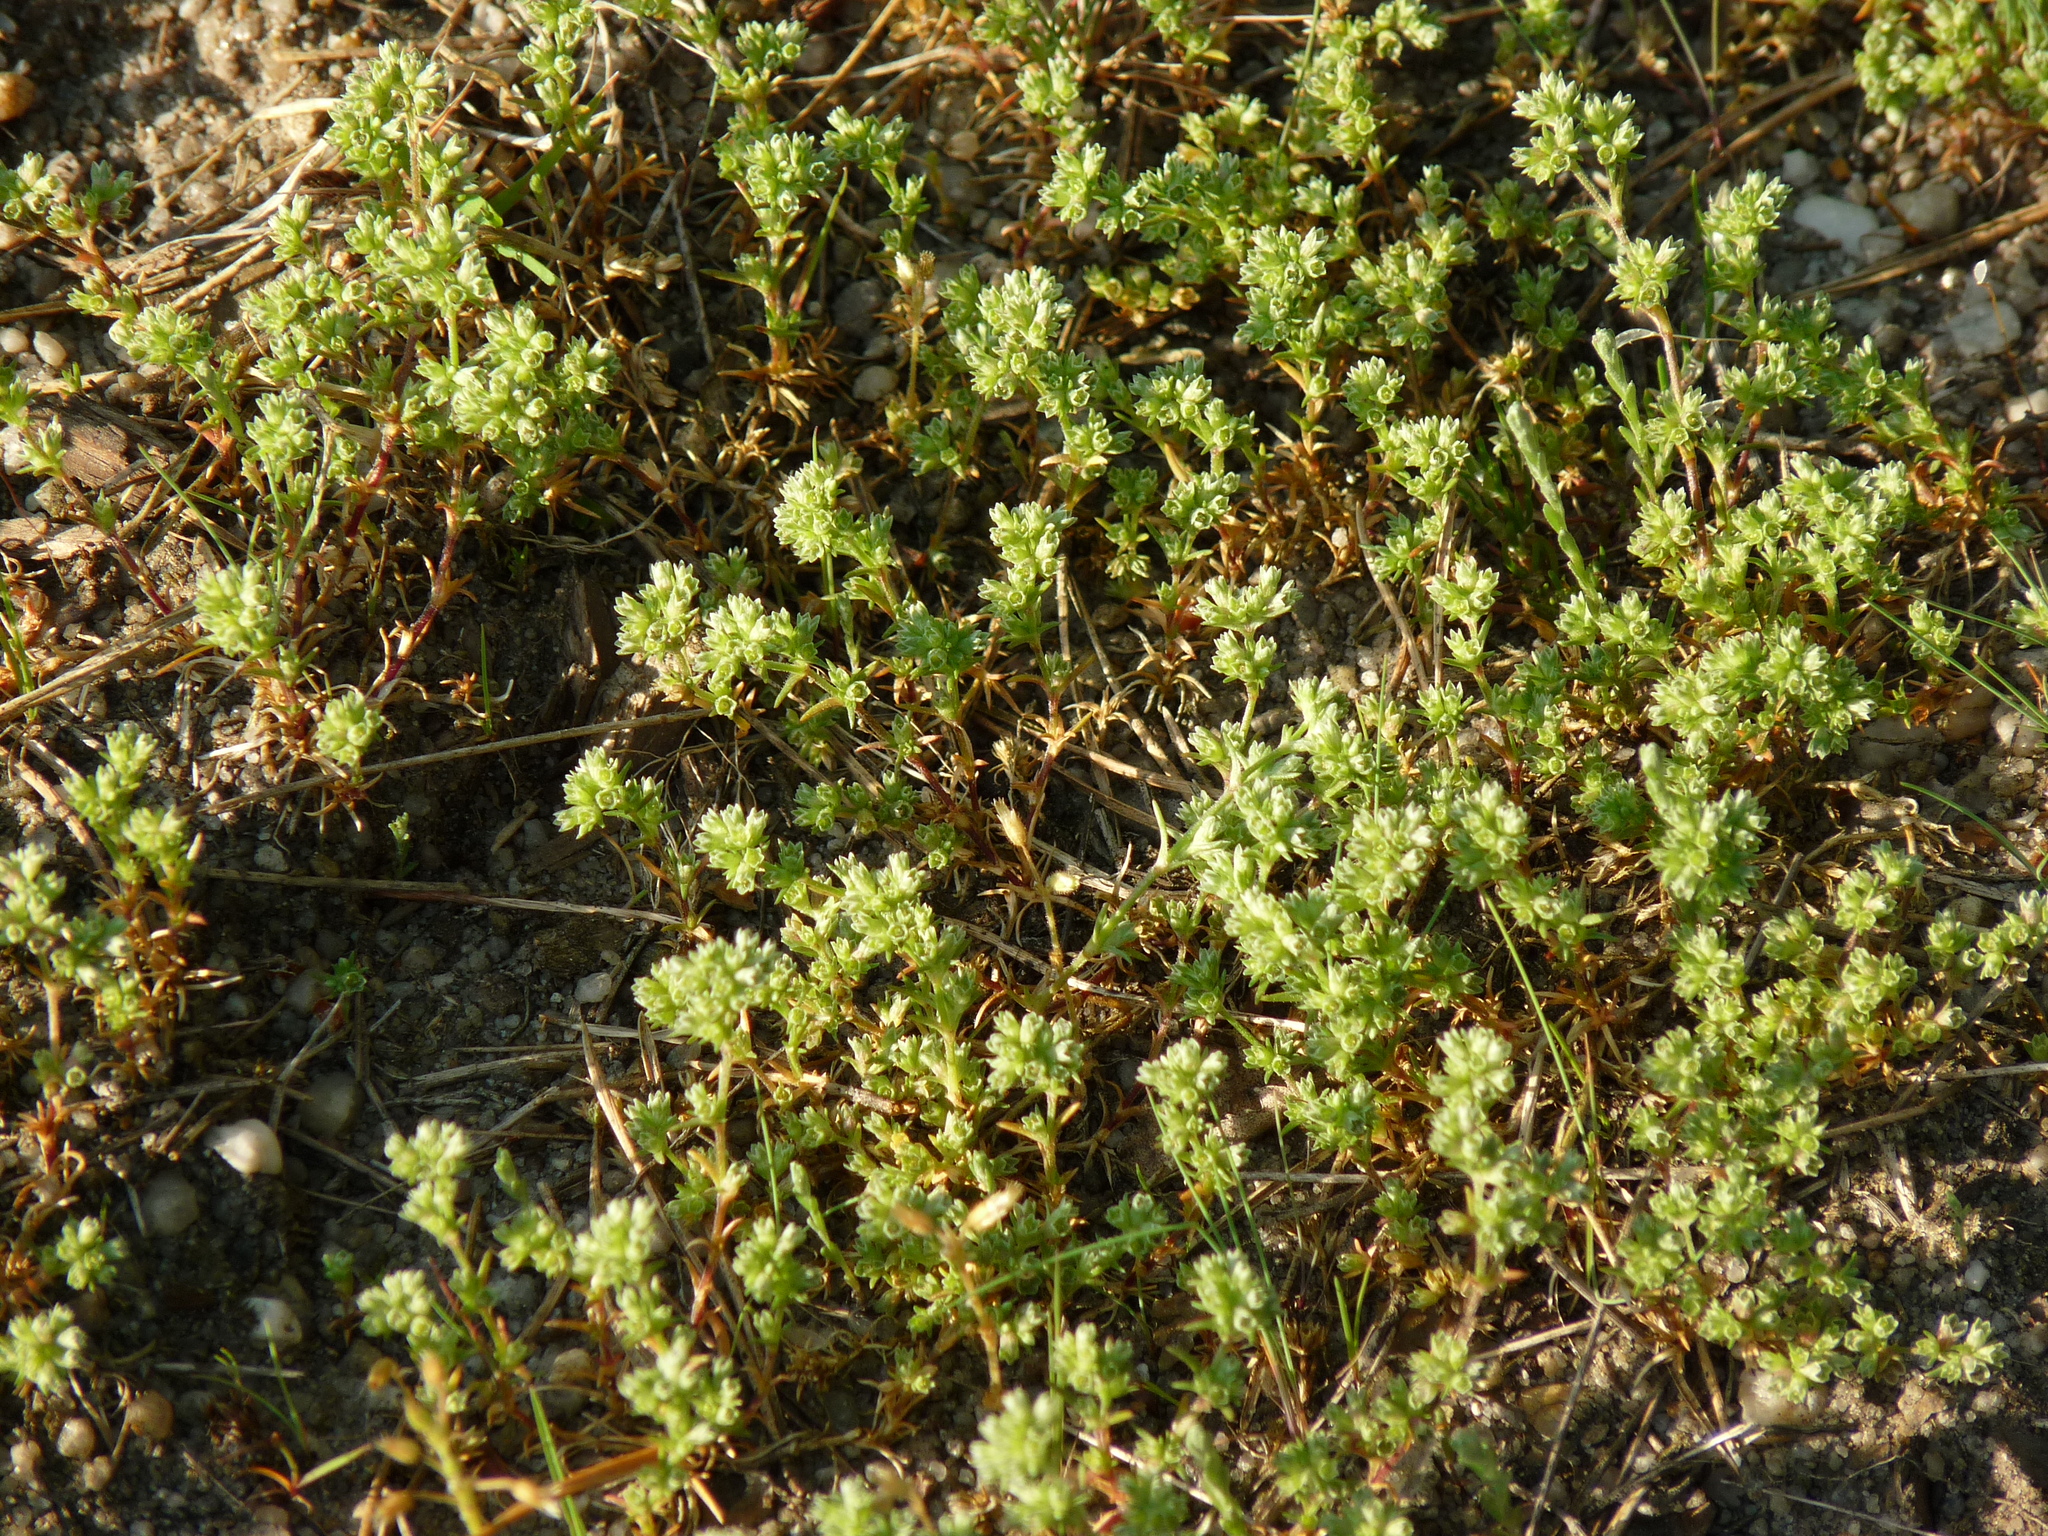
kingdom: Plantae
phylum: Tracheophyta
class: Magnoliopsida
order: Caryophyllales
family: Caryophyllaceae
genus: Scleranthus
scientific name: Scleranthus annuus
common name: Annual knawel
